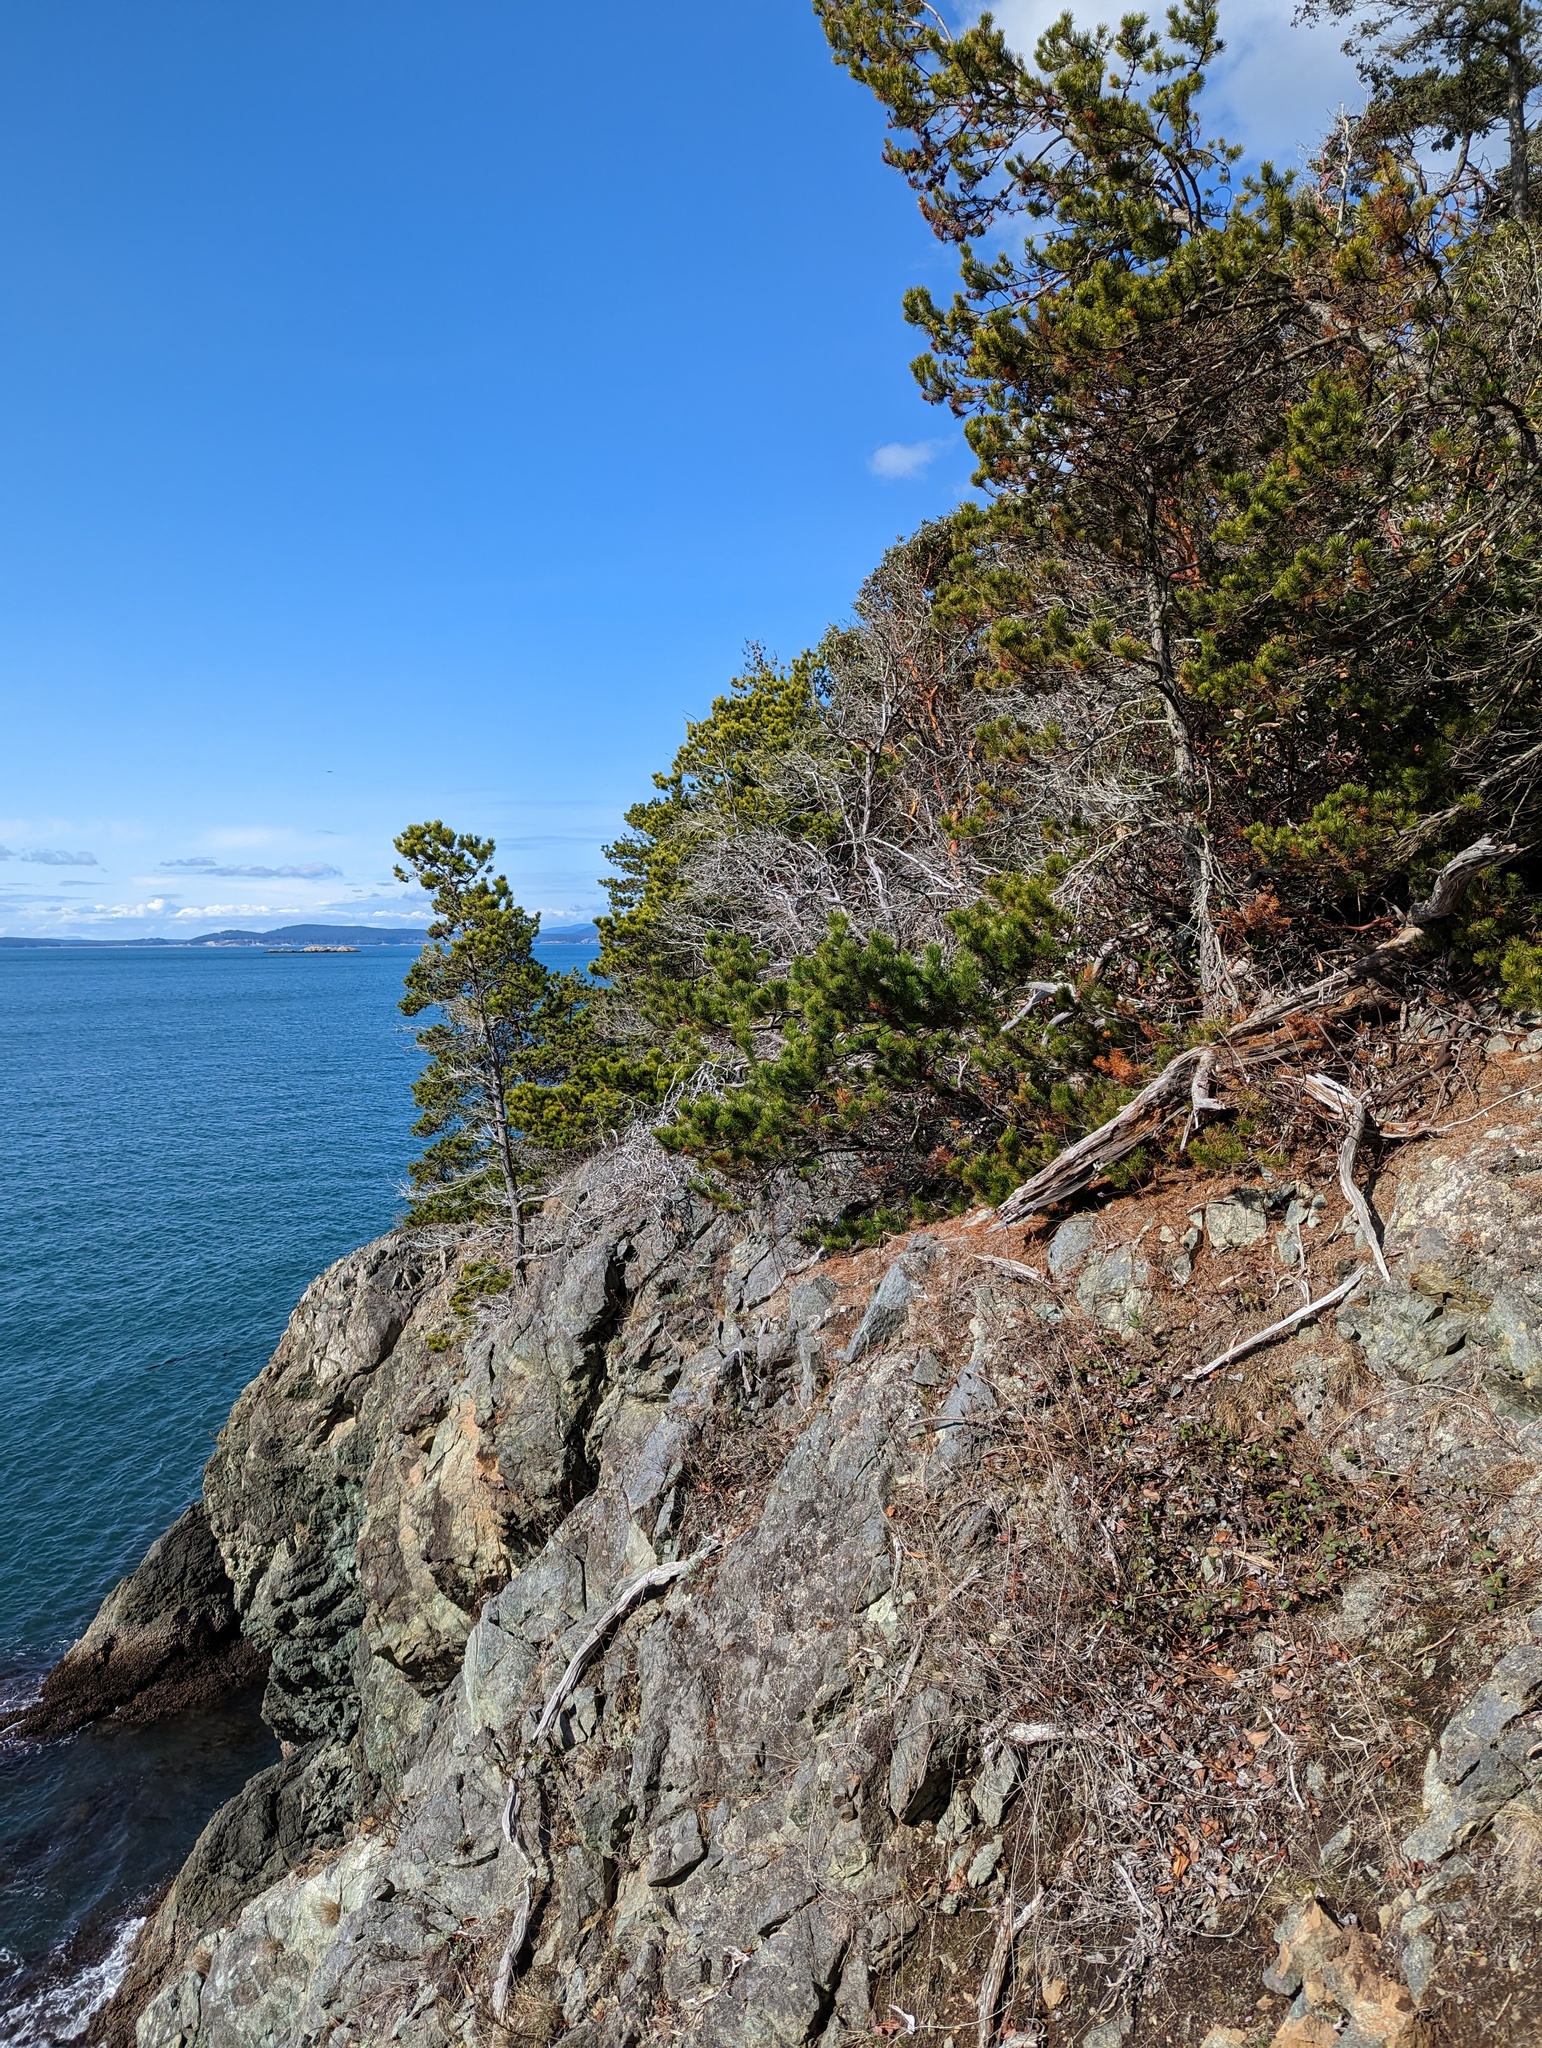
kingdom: Plantae
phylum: Tracheophyta
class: Pinopsida
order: Pinales
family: Pinaceae
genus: Pinus
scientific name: Pinus contorta
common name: Lodgepole pine
